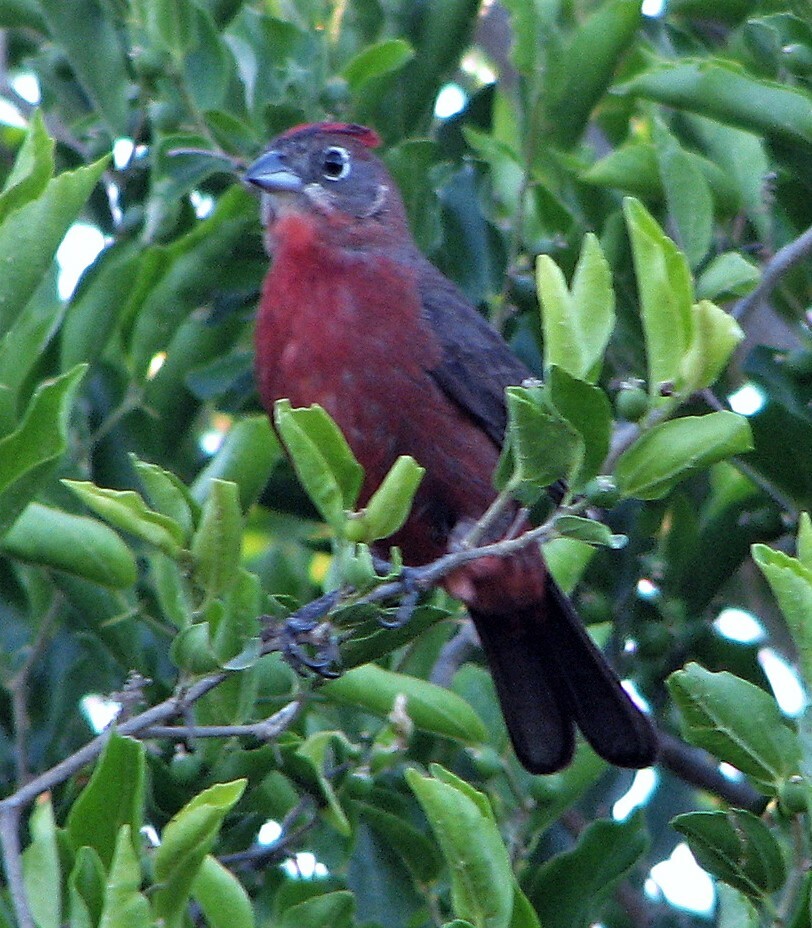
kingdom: Animalia
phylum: Chordata
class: Aves
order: Passeriformes
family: Thraupidae
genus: Coryphospingus
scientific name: Coryphospingus cucullatus
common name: Red pileated finch
